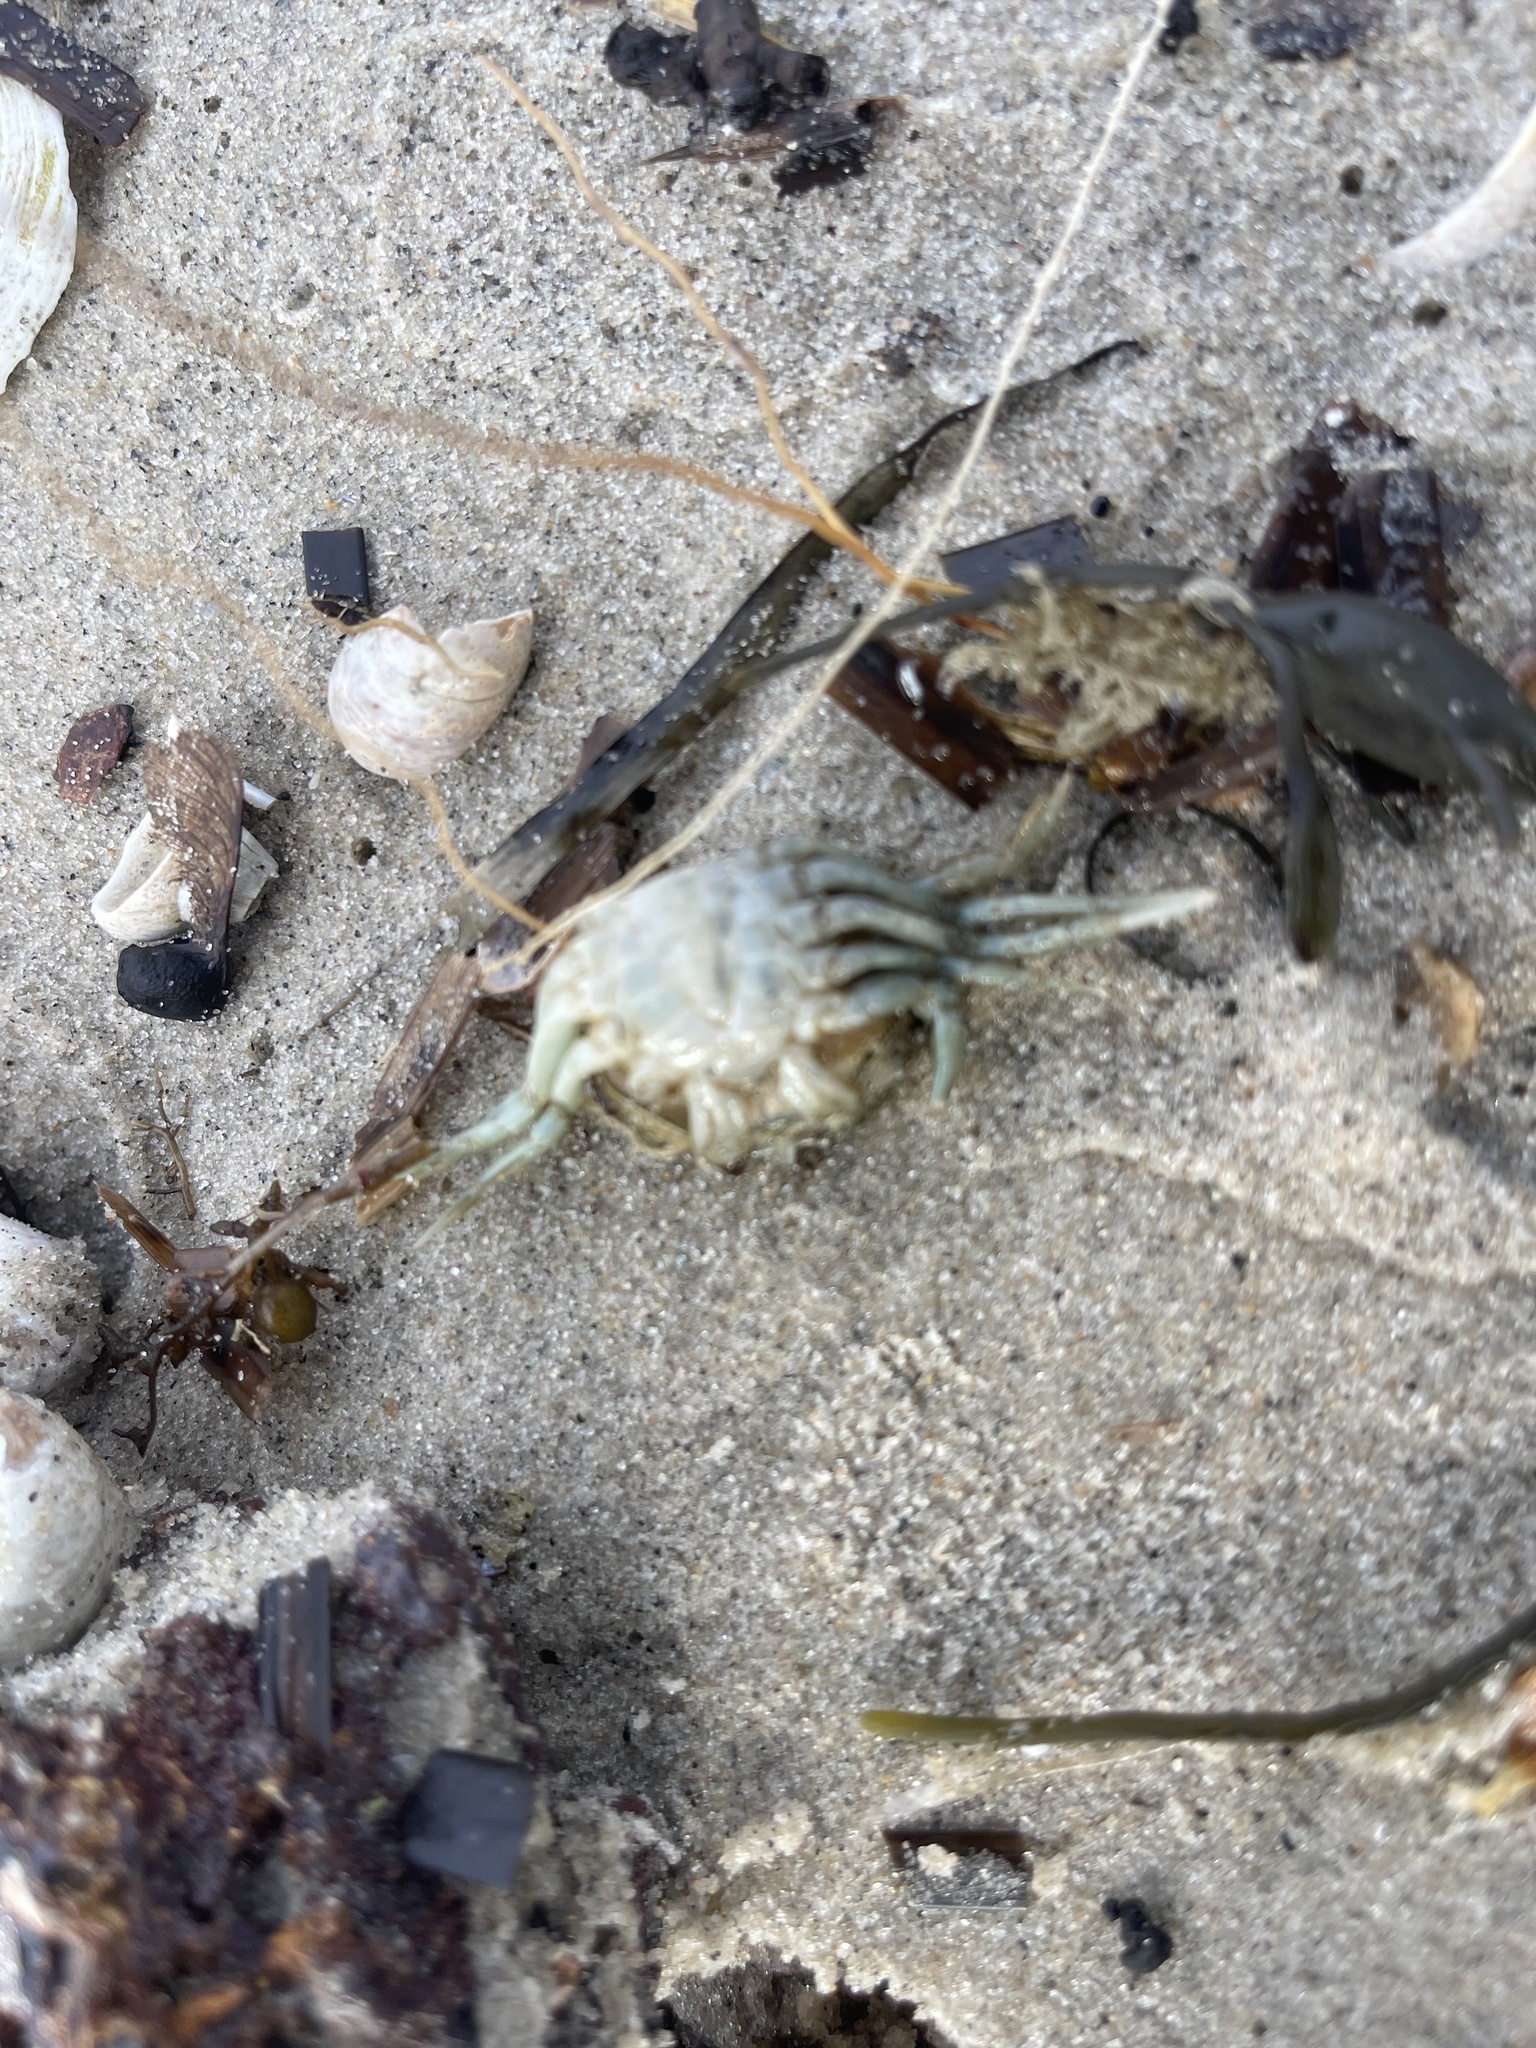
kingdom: Animalia
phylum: Arthropoda
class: Malacostraca
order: Decapoda
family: Carcinidae
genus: Carcinus
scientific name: Carcinus maenas
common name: European green crab
